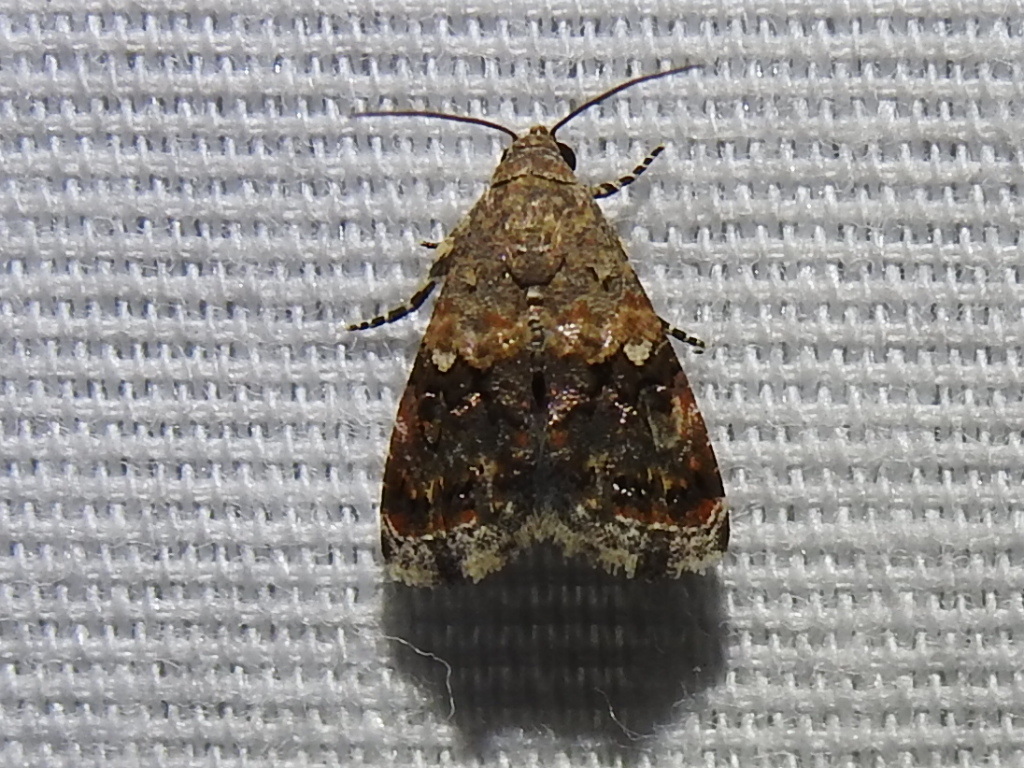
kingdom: Animalia
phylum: Arthropoda
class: Insecta
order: Lepidoptera
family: Noctuidae
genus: Tripudia
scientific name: Tripudia luxuriosa
